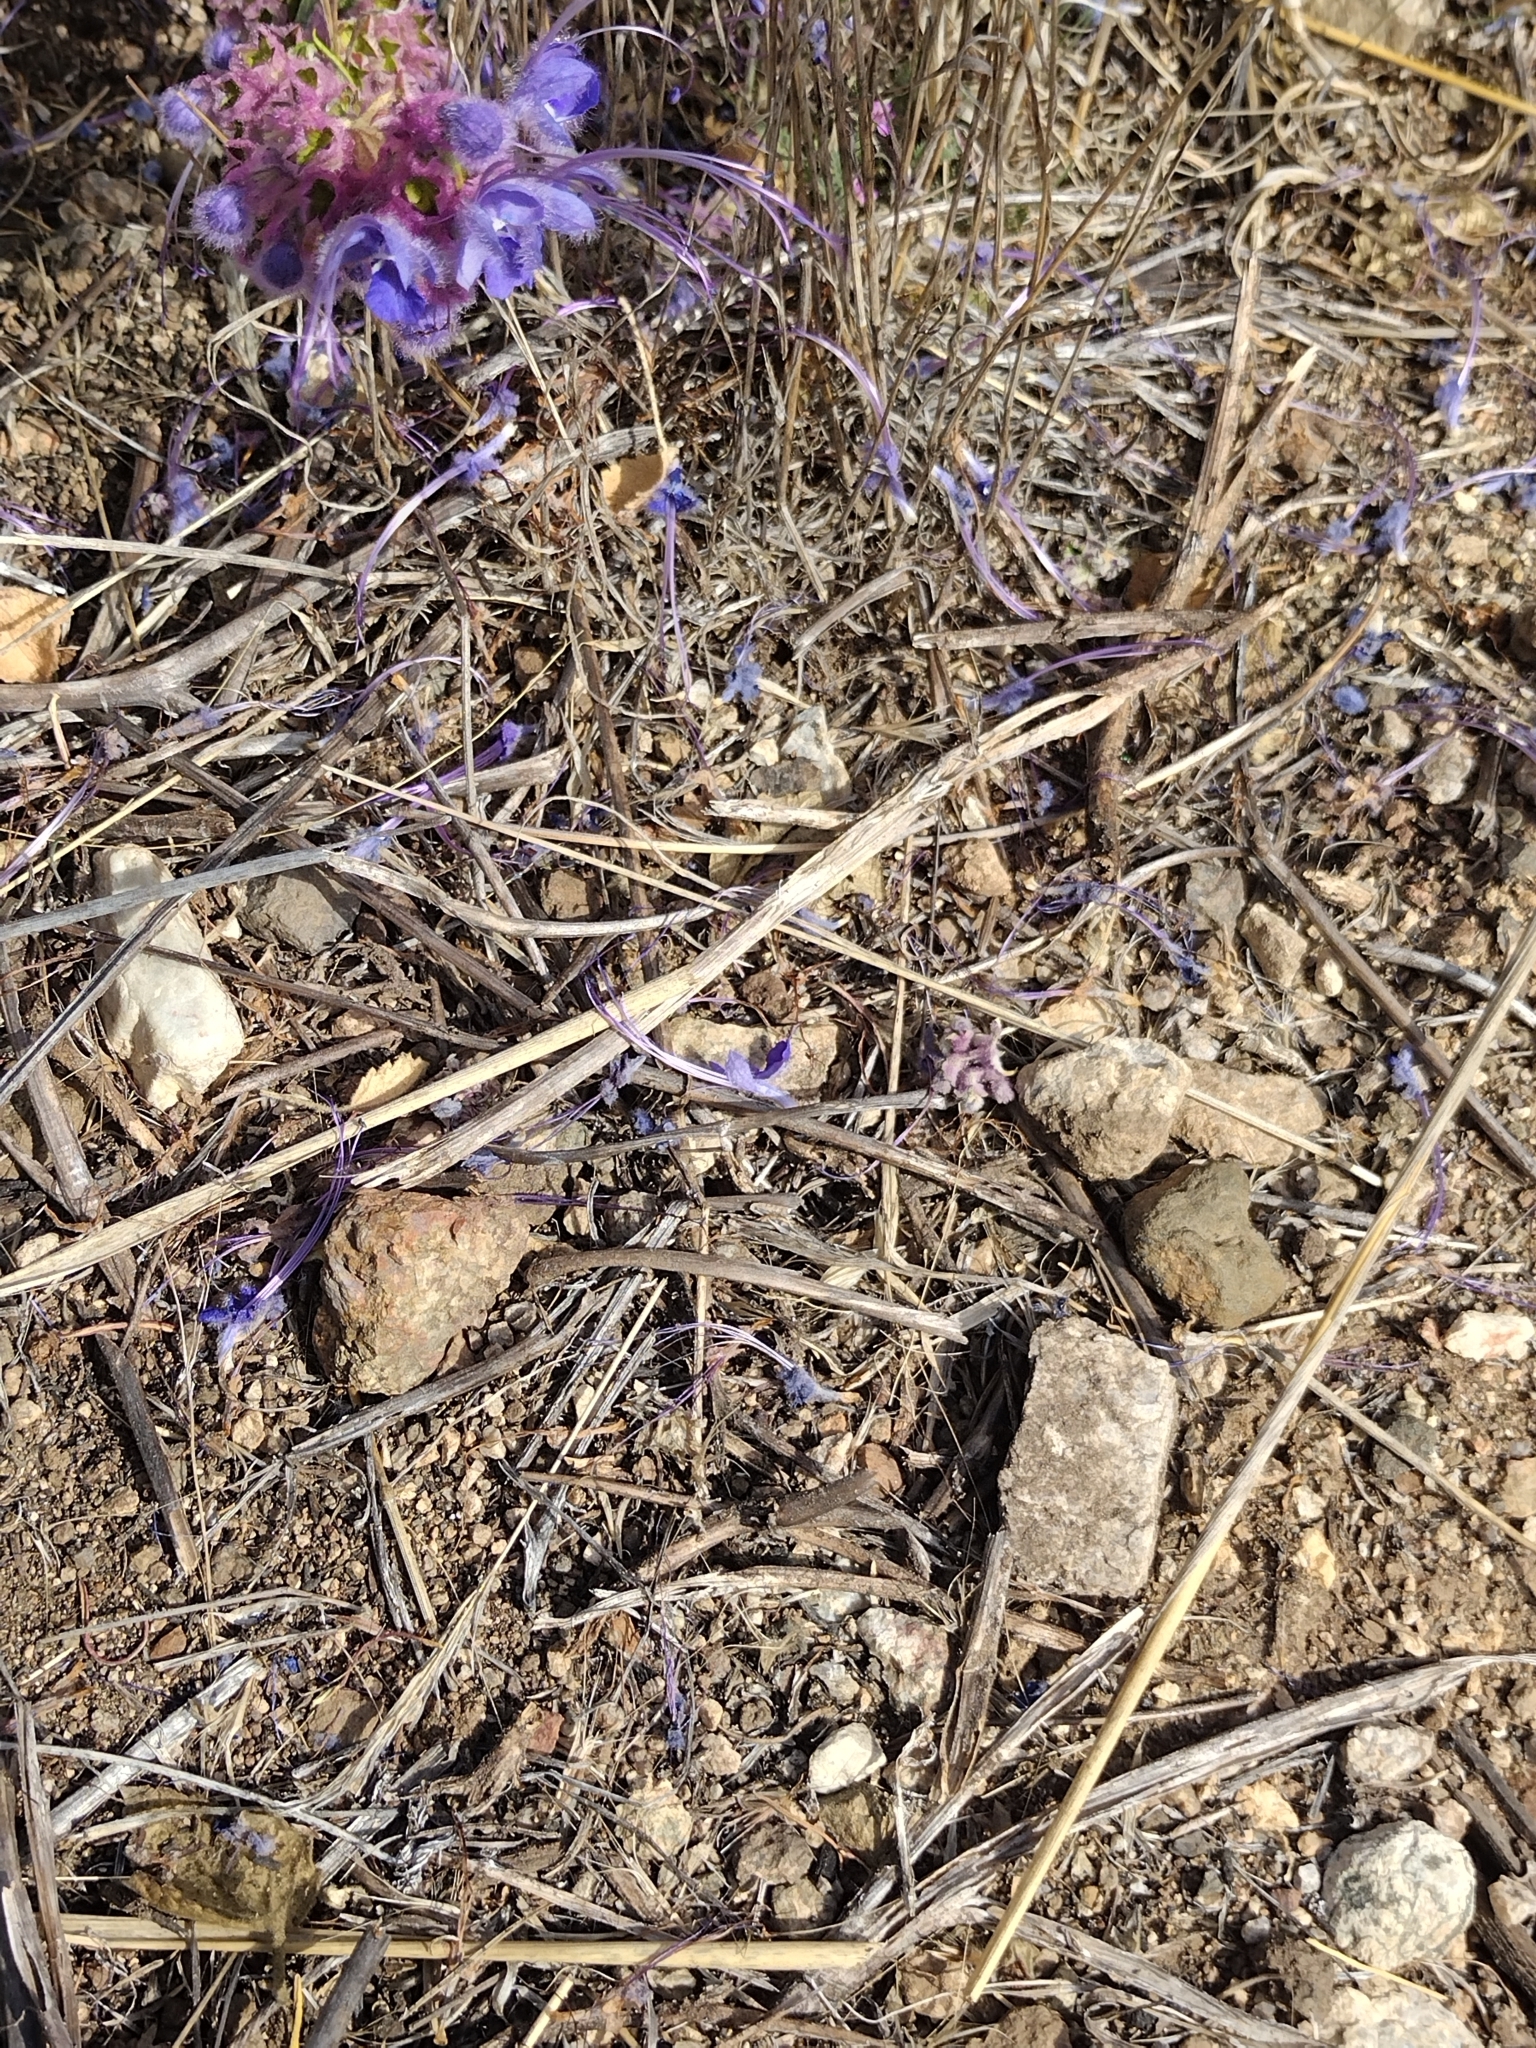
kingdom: Plantae
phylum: Tracheophyta
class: Magnoliopsida
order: Lamiales
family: Lamiaceae
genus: Trichostema
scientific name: Trichostema lanatum
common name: Woolly bluecurls
